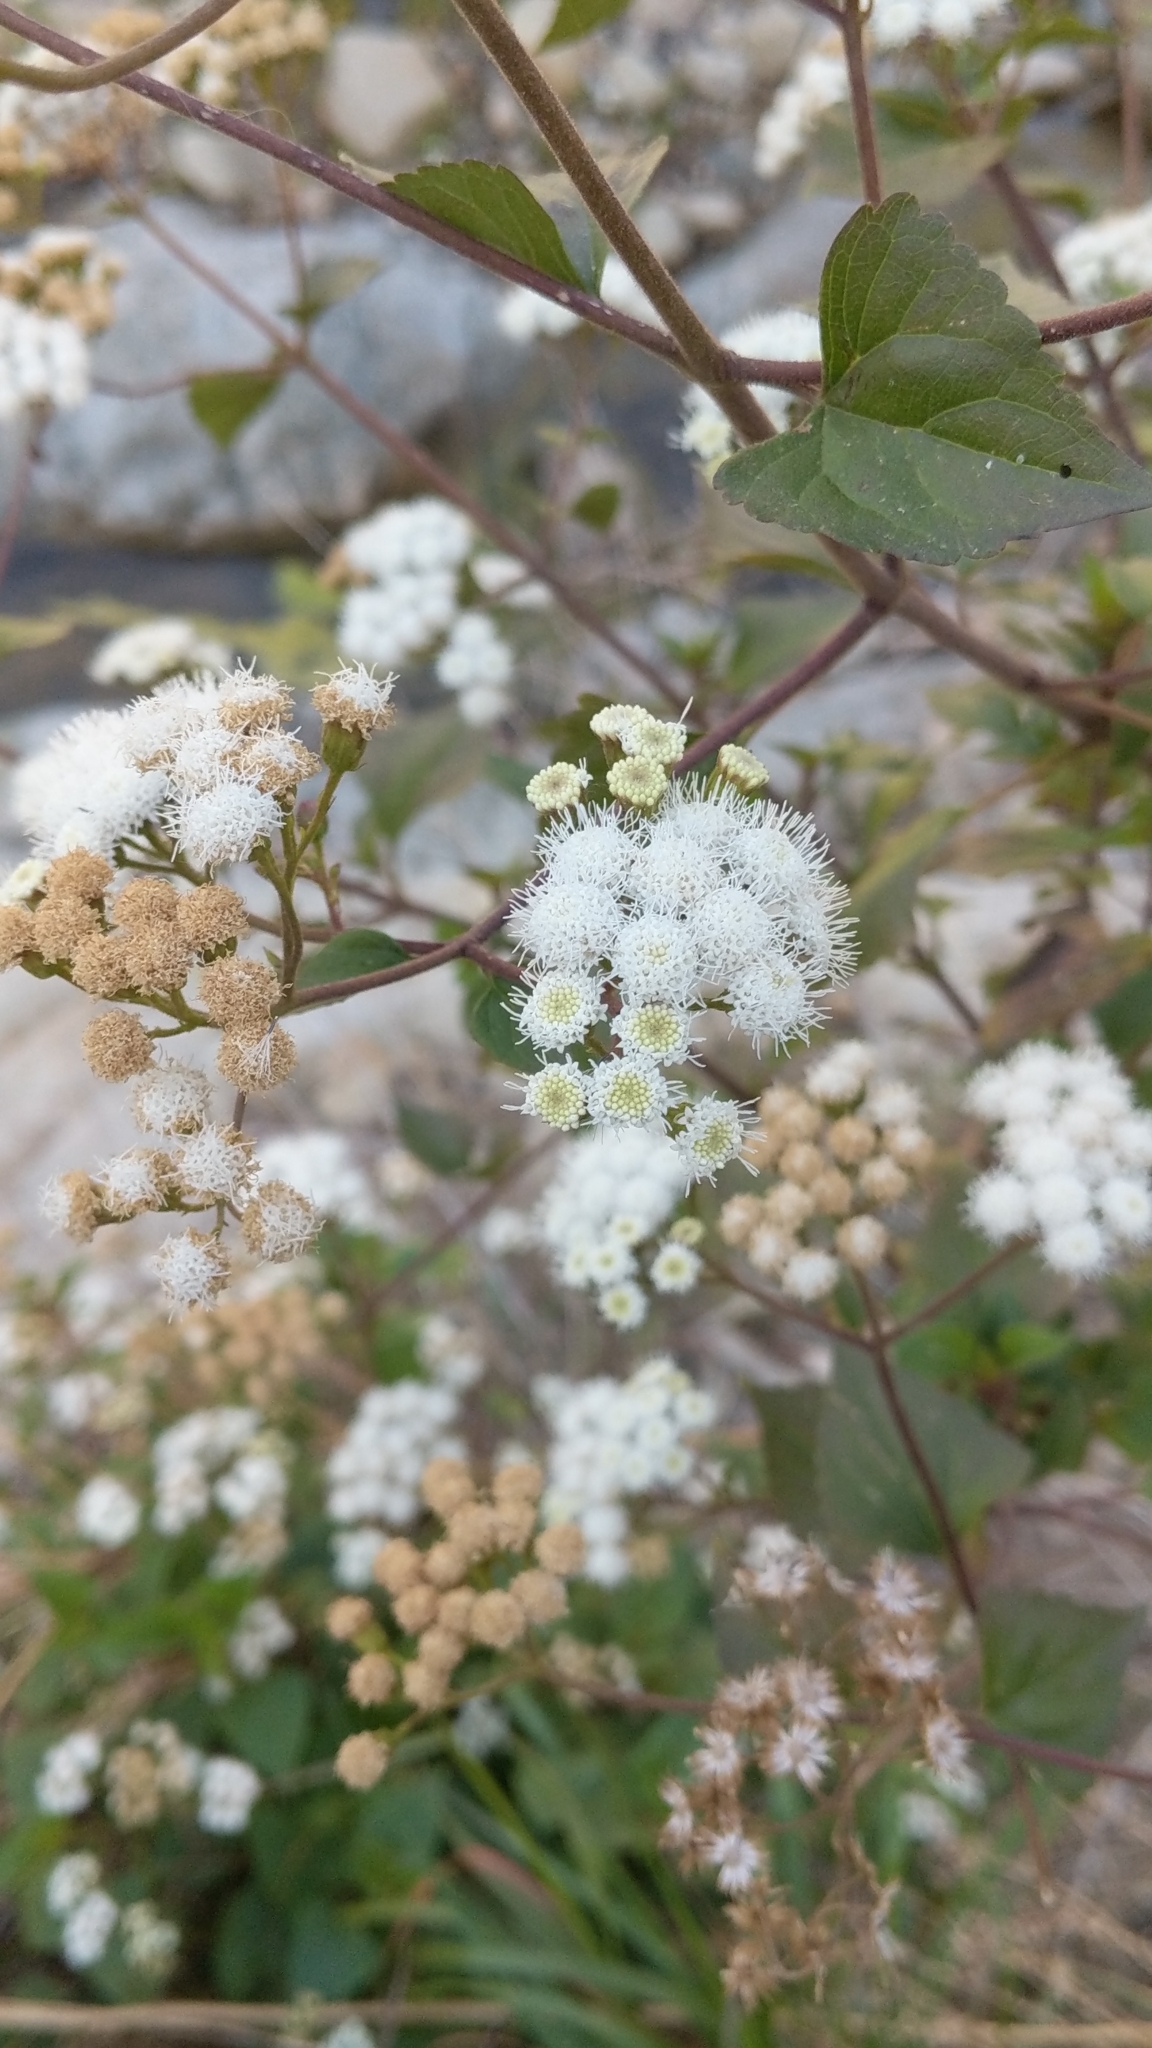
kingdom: Plantae
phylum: Tracheophyta
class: Magnoliopsida
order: Asterales
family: Asteraceae
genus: Ageratina
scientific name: Ageratina adenophora
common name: Sticky snakeroot
